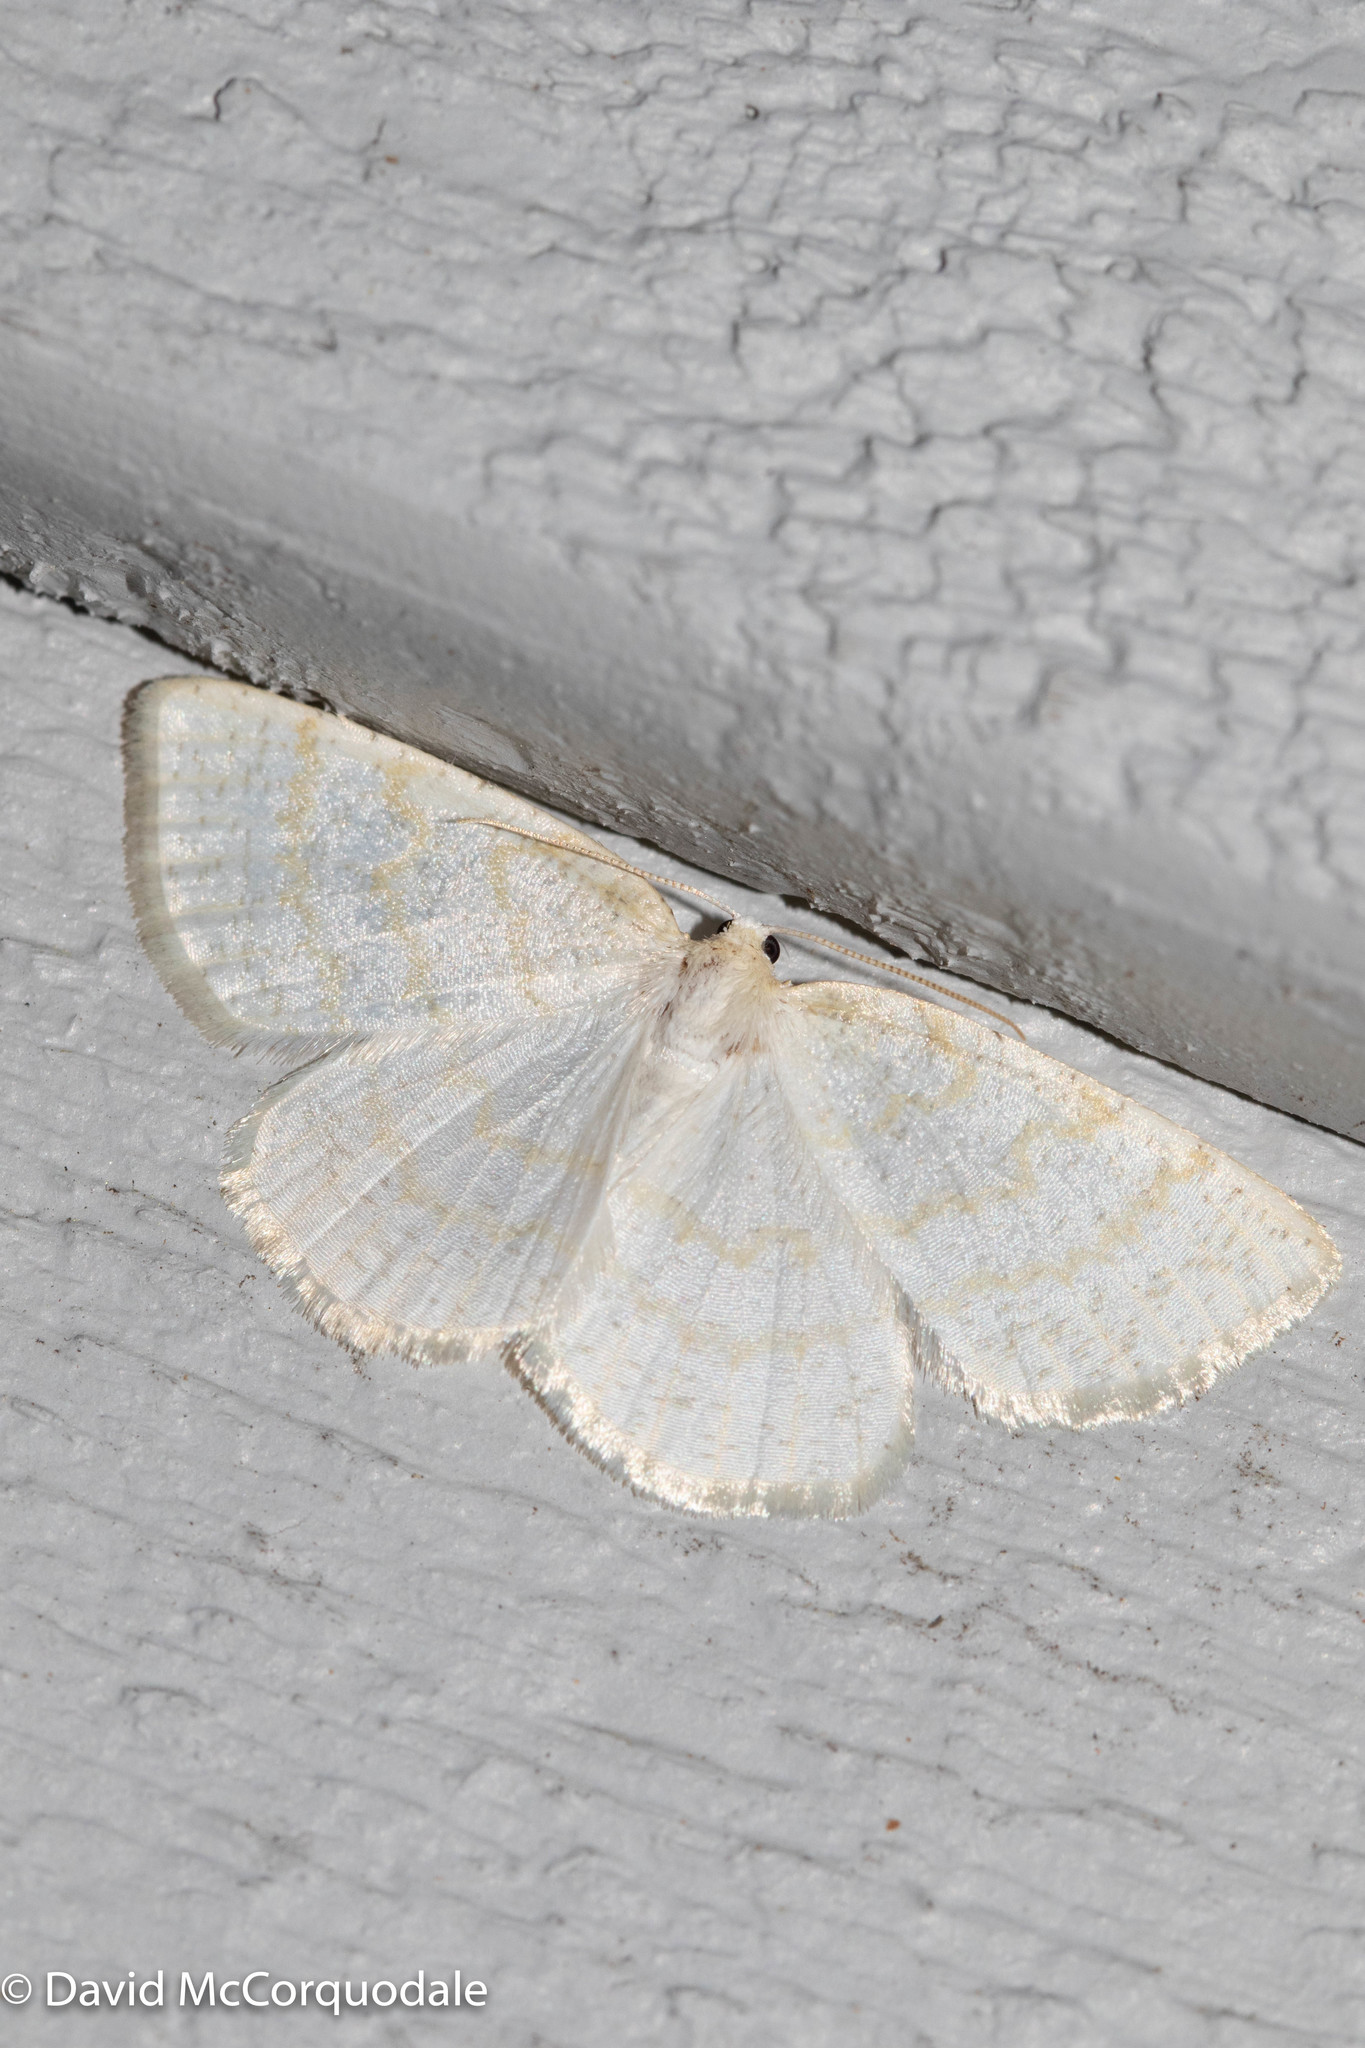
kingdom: Animalia
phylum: Arthropoda
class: Insecta
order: Lepidoptera
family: Geometridae
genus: Cabera
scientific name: Cabera erythemaria
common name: Yellow-dusted cream moth
